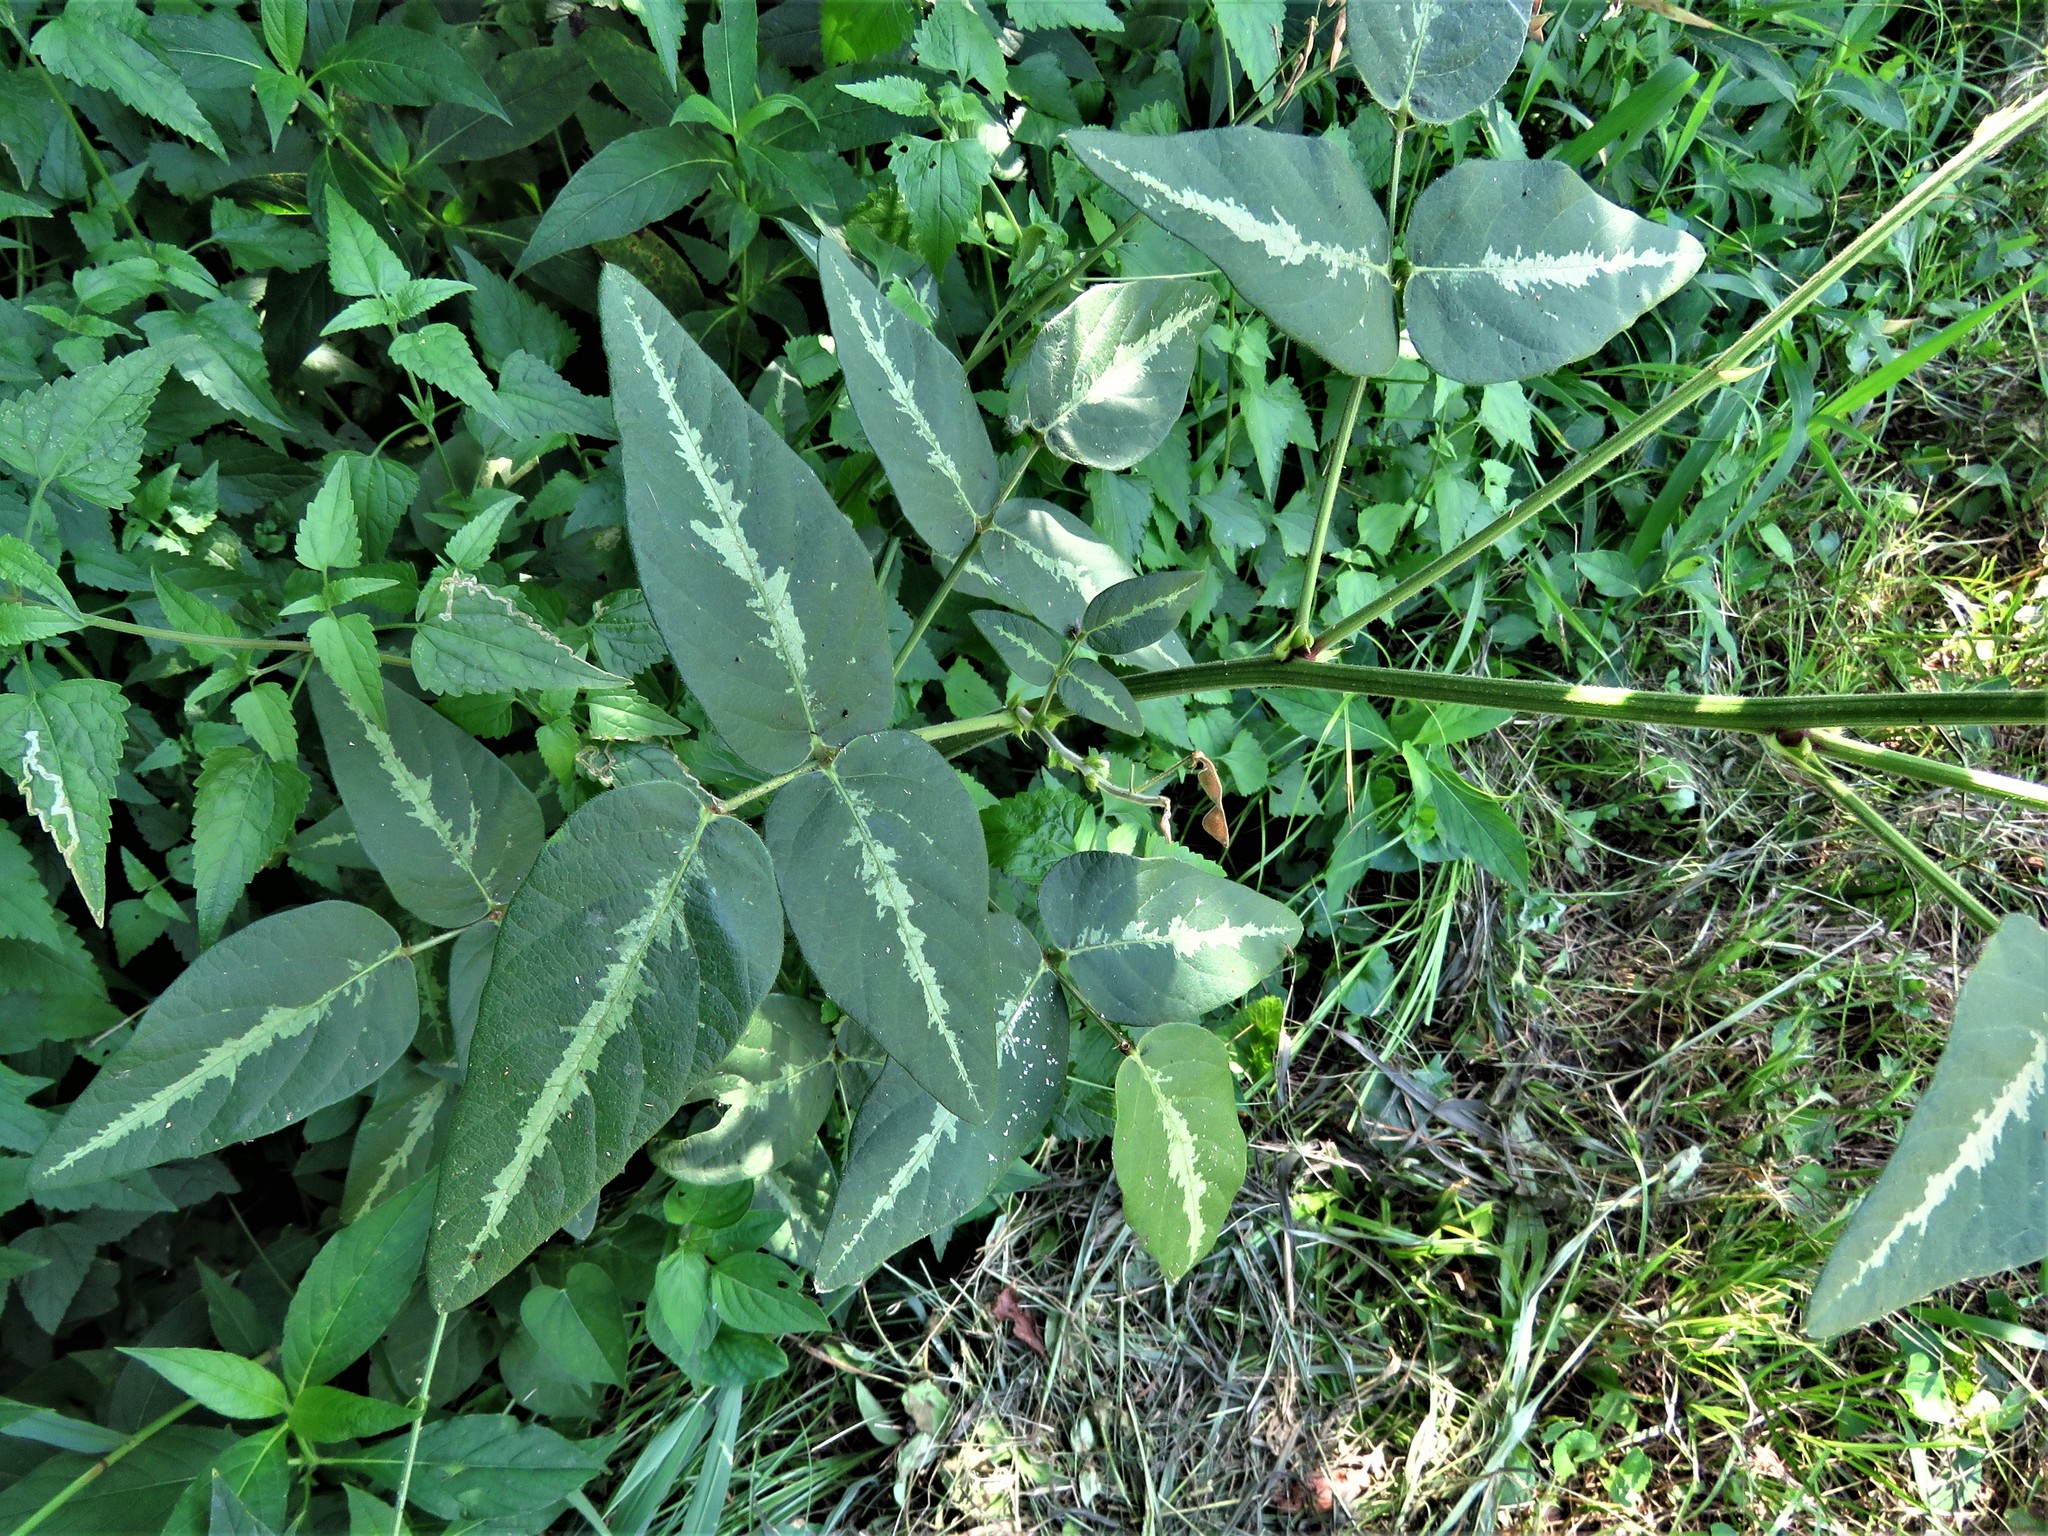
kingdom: Plantae
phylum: Tracheophyta
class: Magnoliopsida
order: Fabales
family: Fabaceae
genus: Desmodium
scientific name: Desmodium tweedyi
